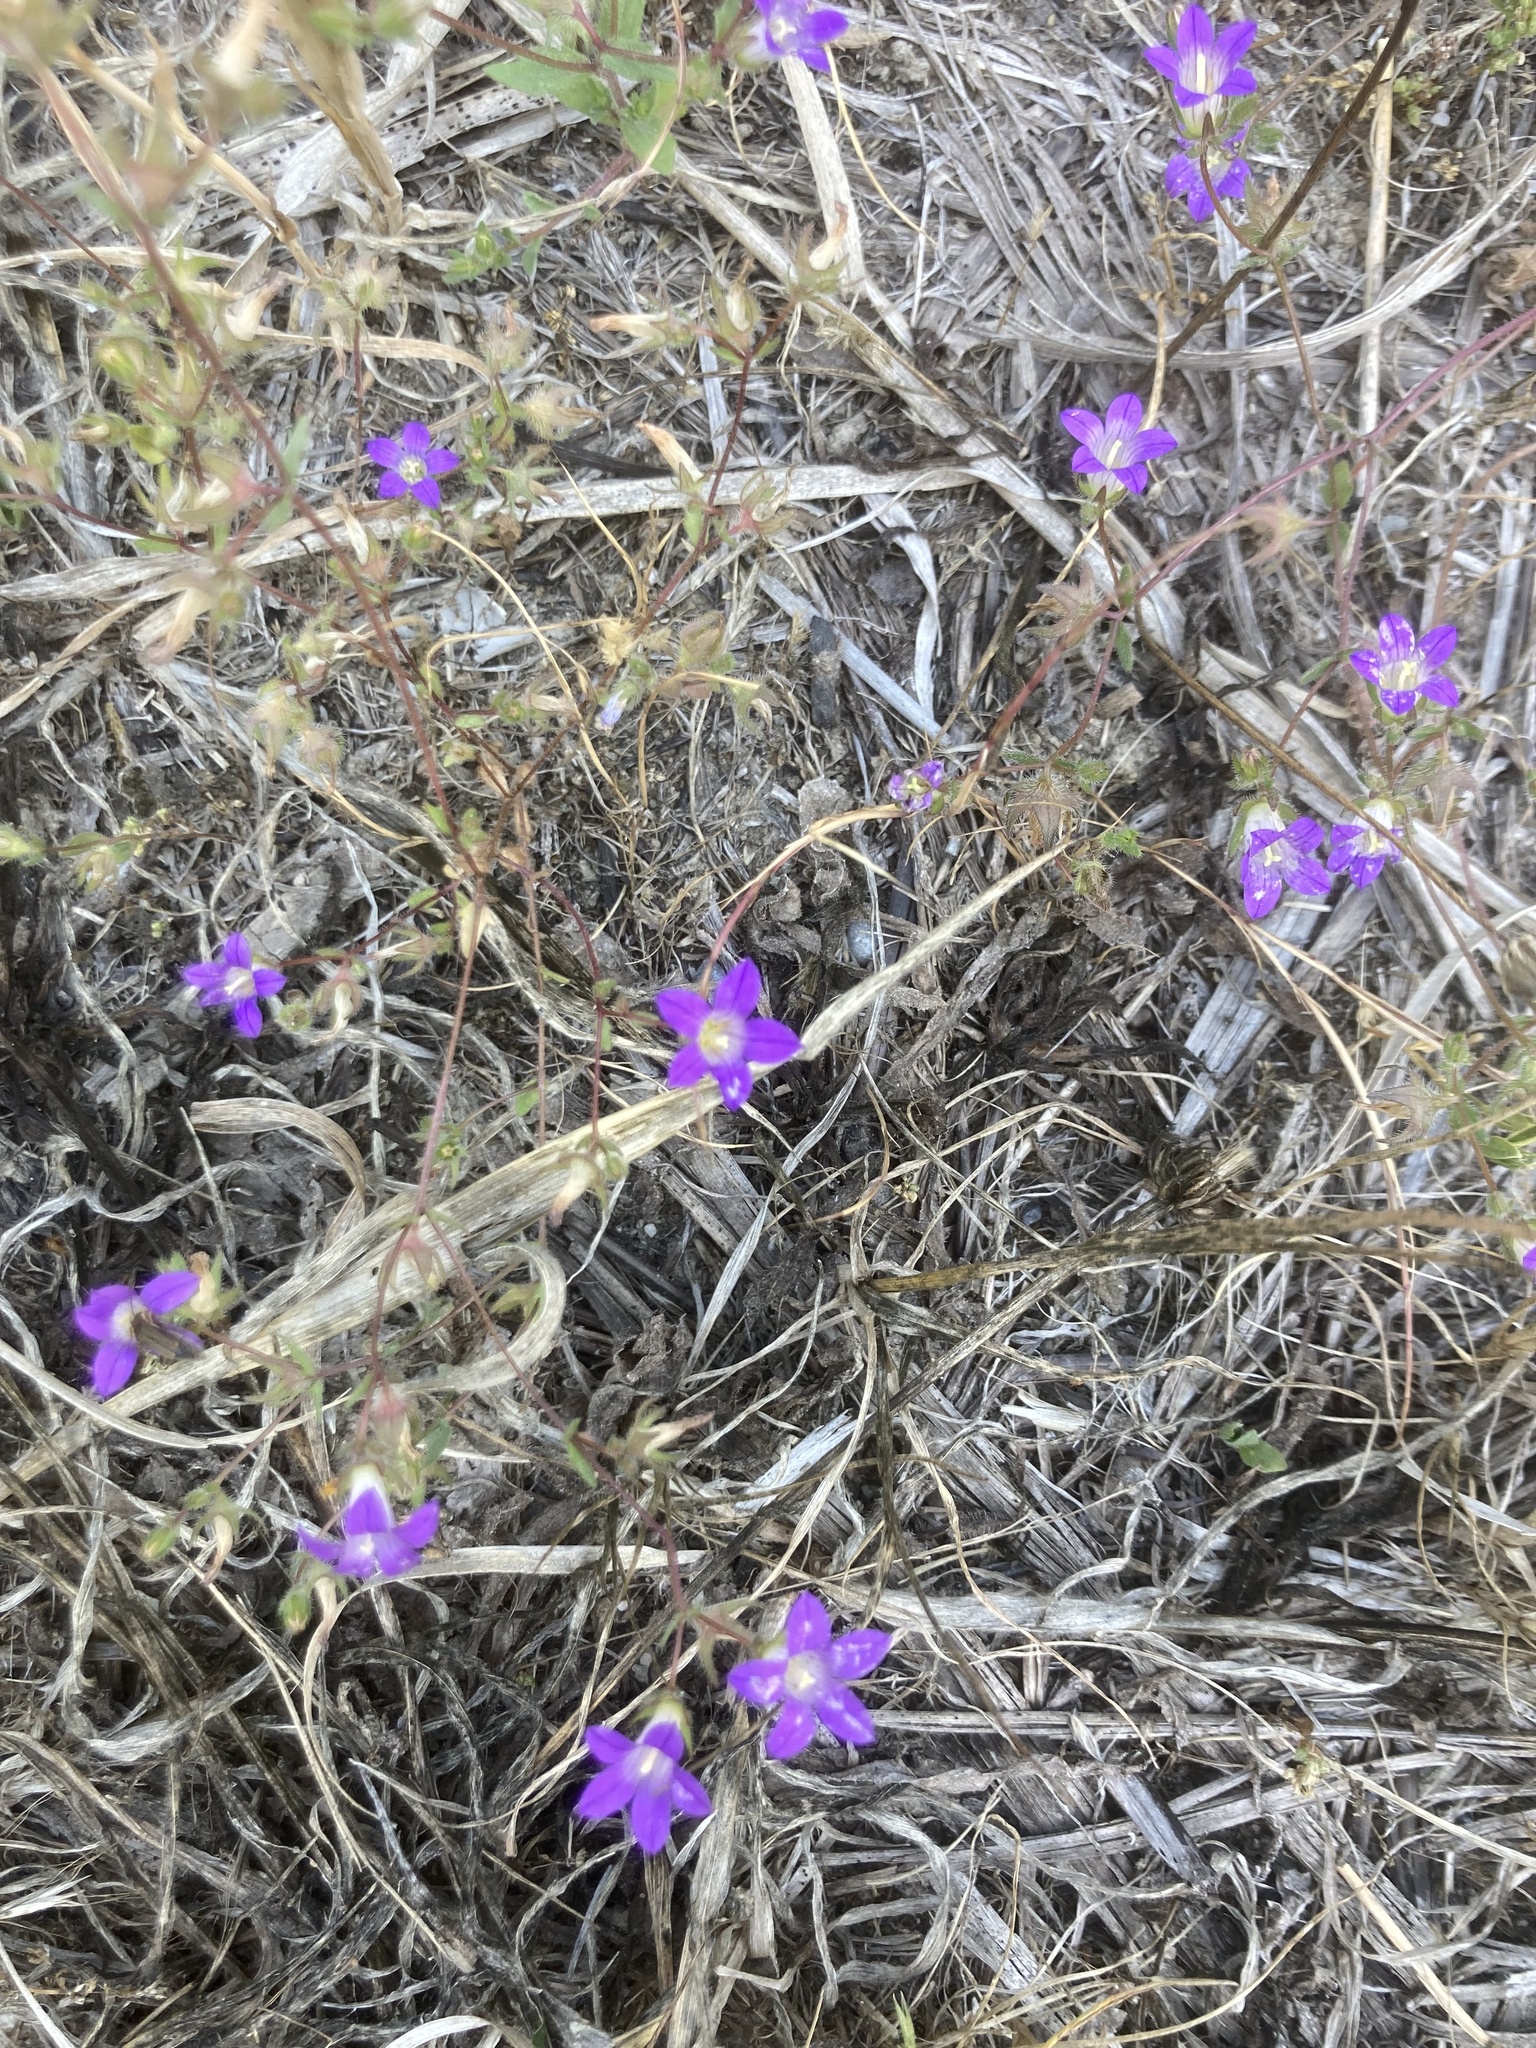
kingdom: Plantae
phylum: Tracheophyta
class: Magnoliopsida
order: Asterales
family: Campanulaceae
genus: Campanula
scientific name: Campanula rhodensis
